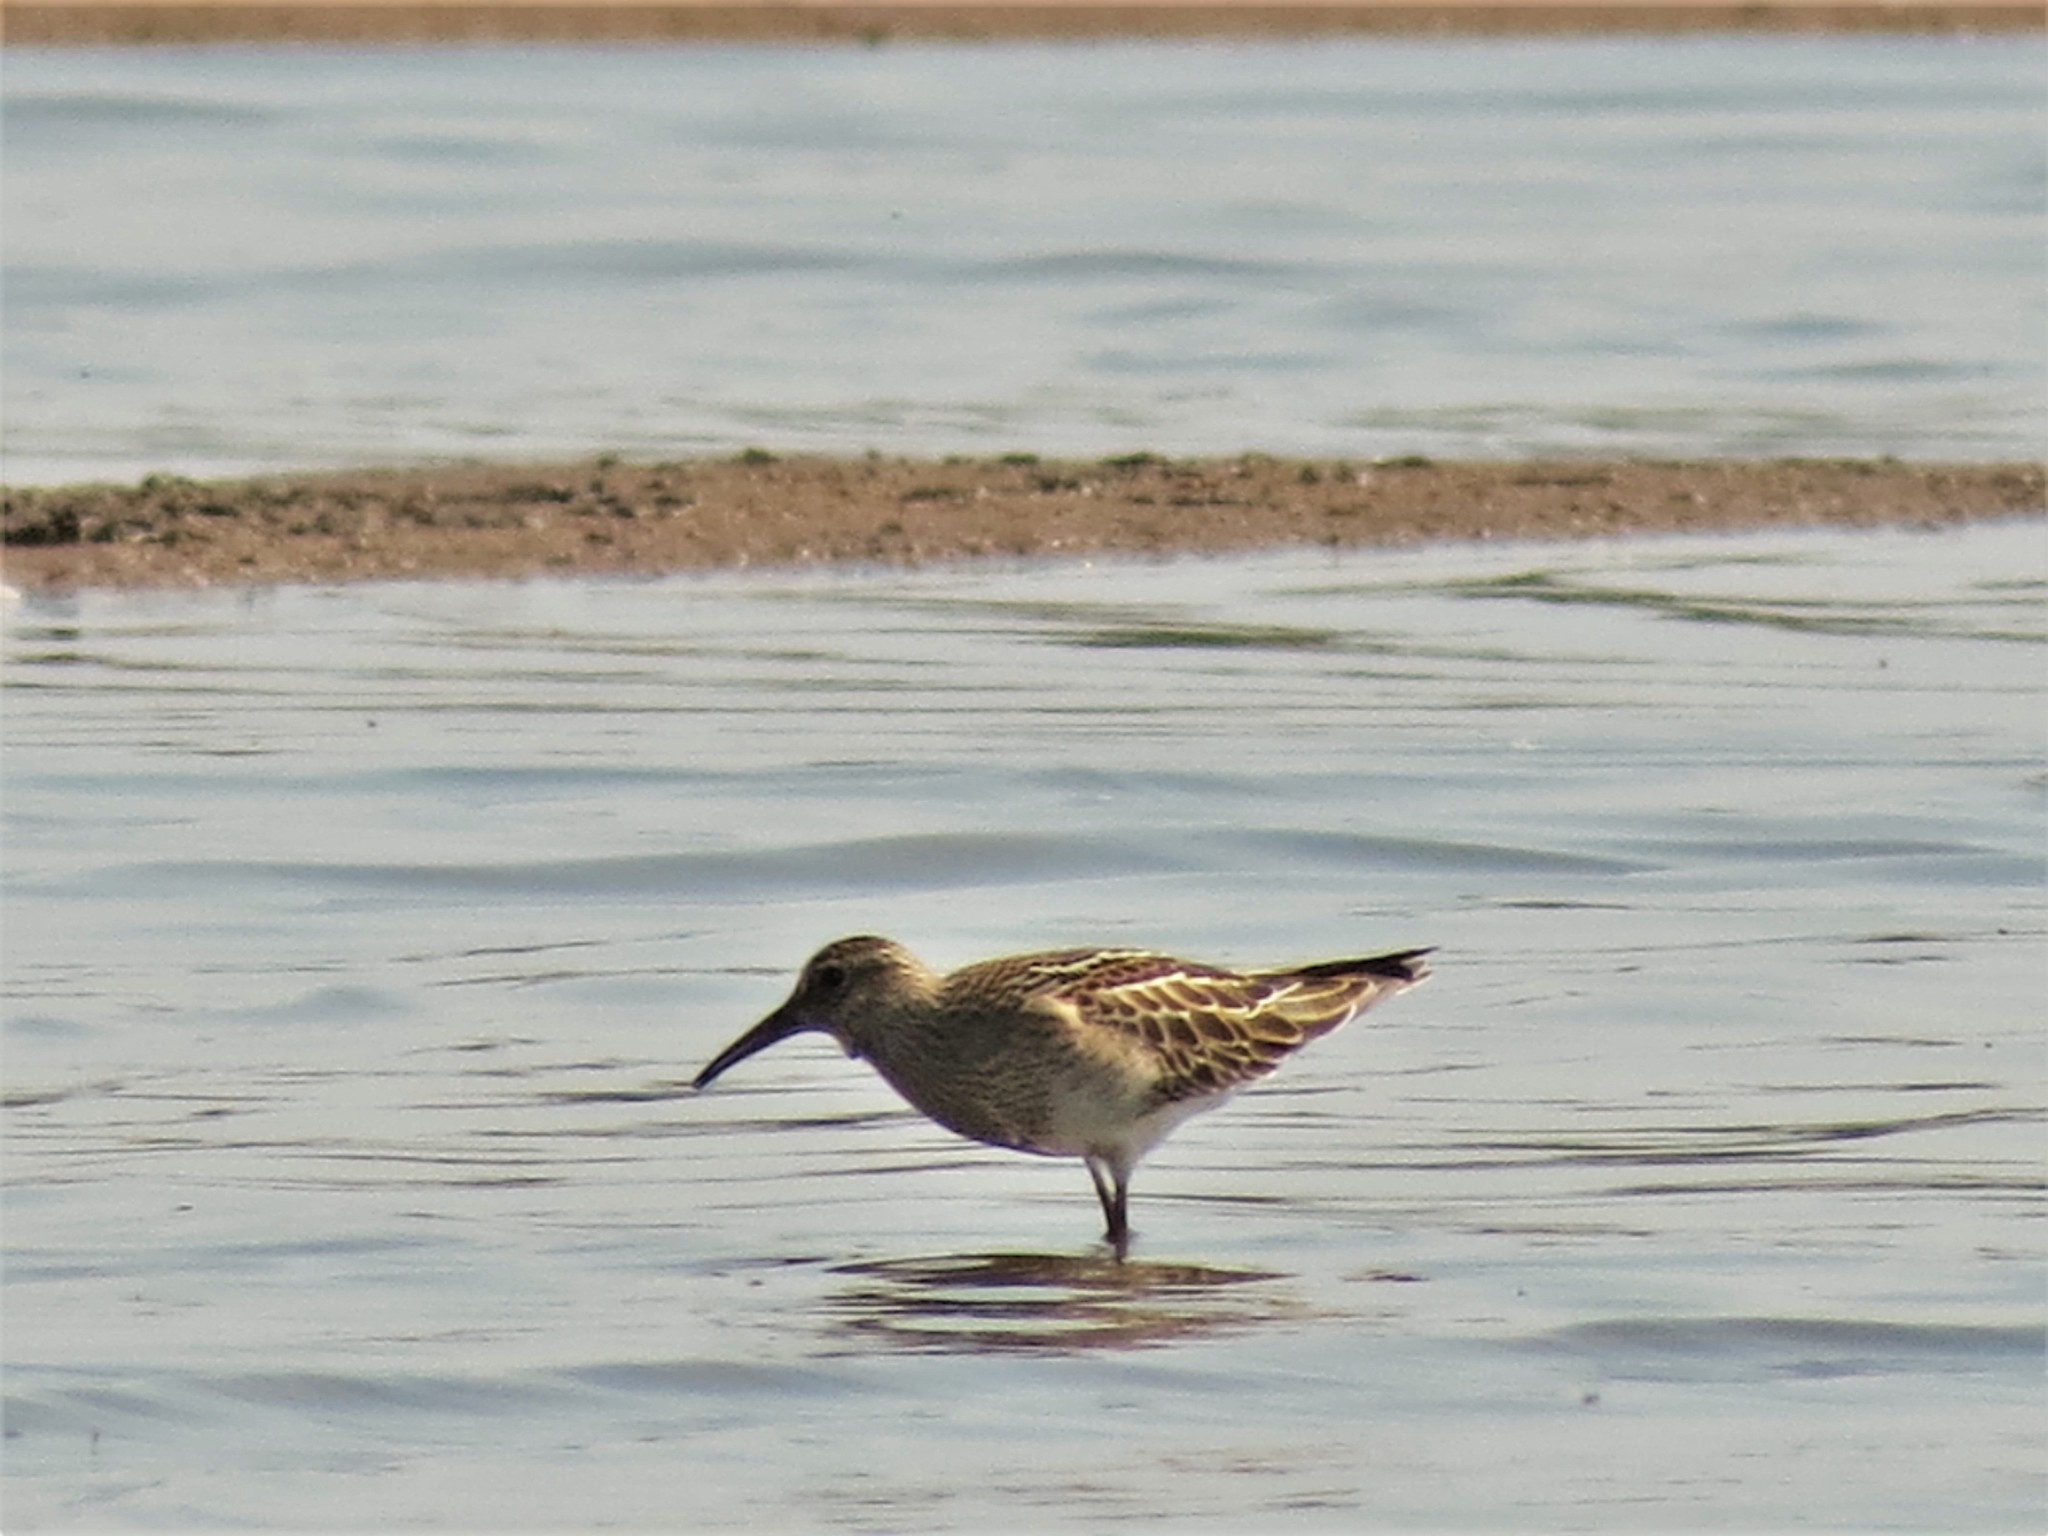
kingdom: Animalia
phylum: Chordata
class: Aves
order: Charadriiformes
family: Scolopacidae
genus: Calidris
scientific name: Calidris melanotos
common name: Pectoral sandpiper
